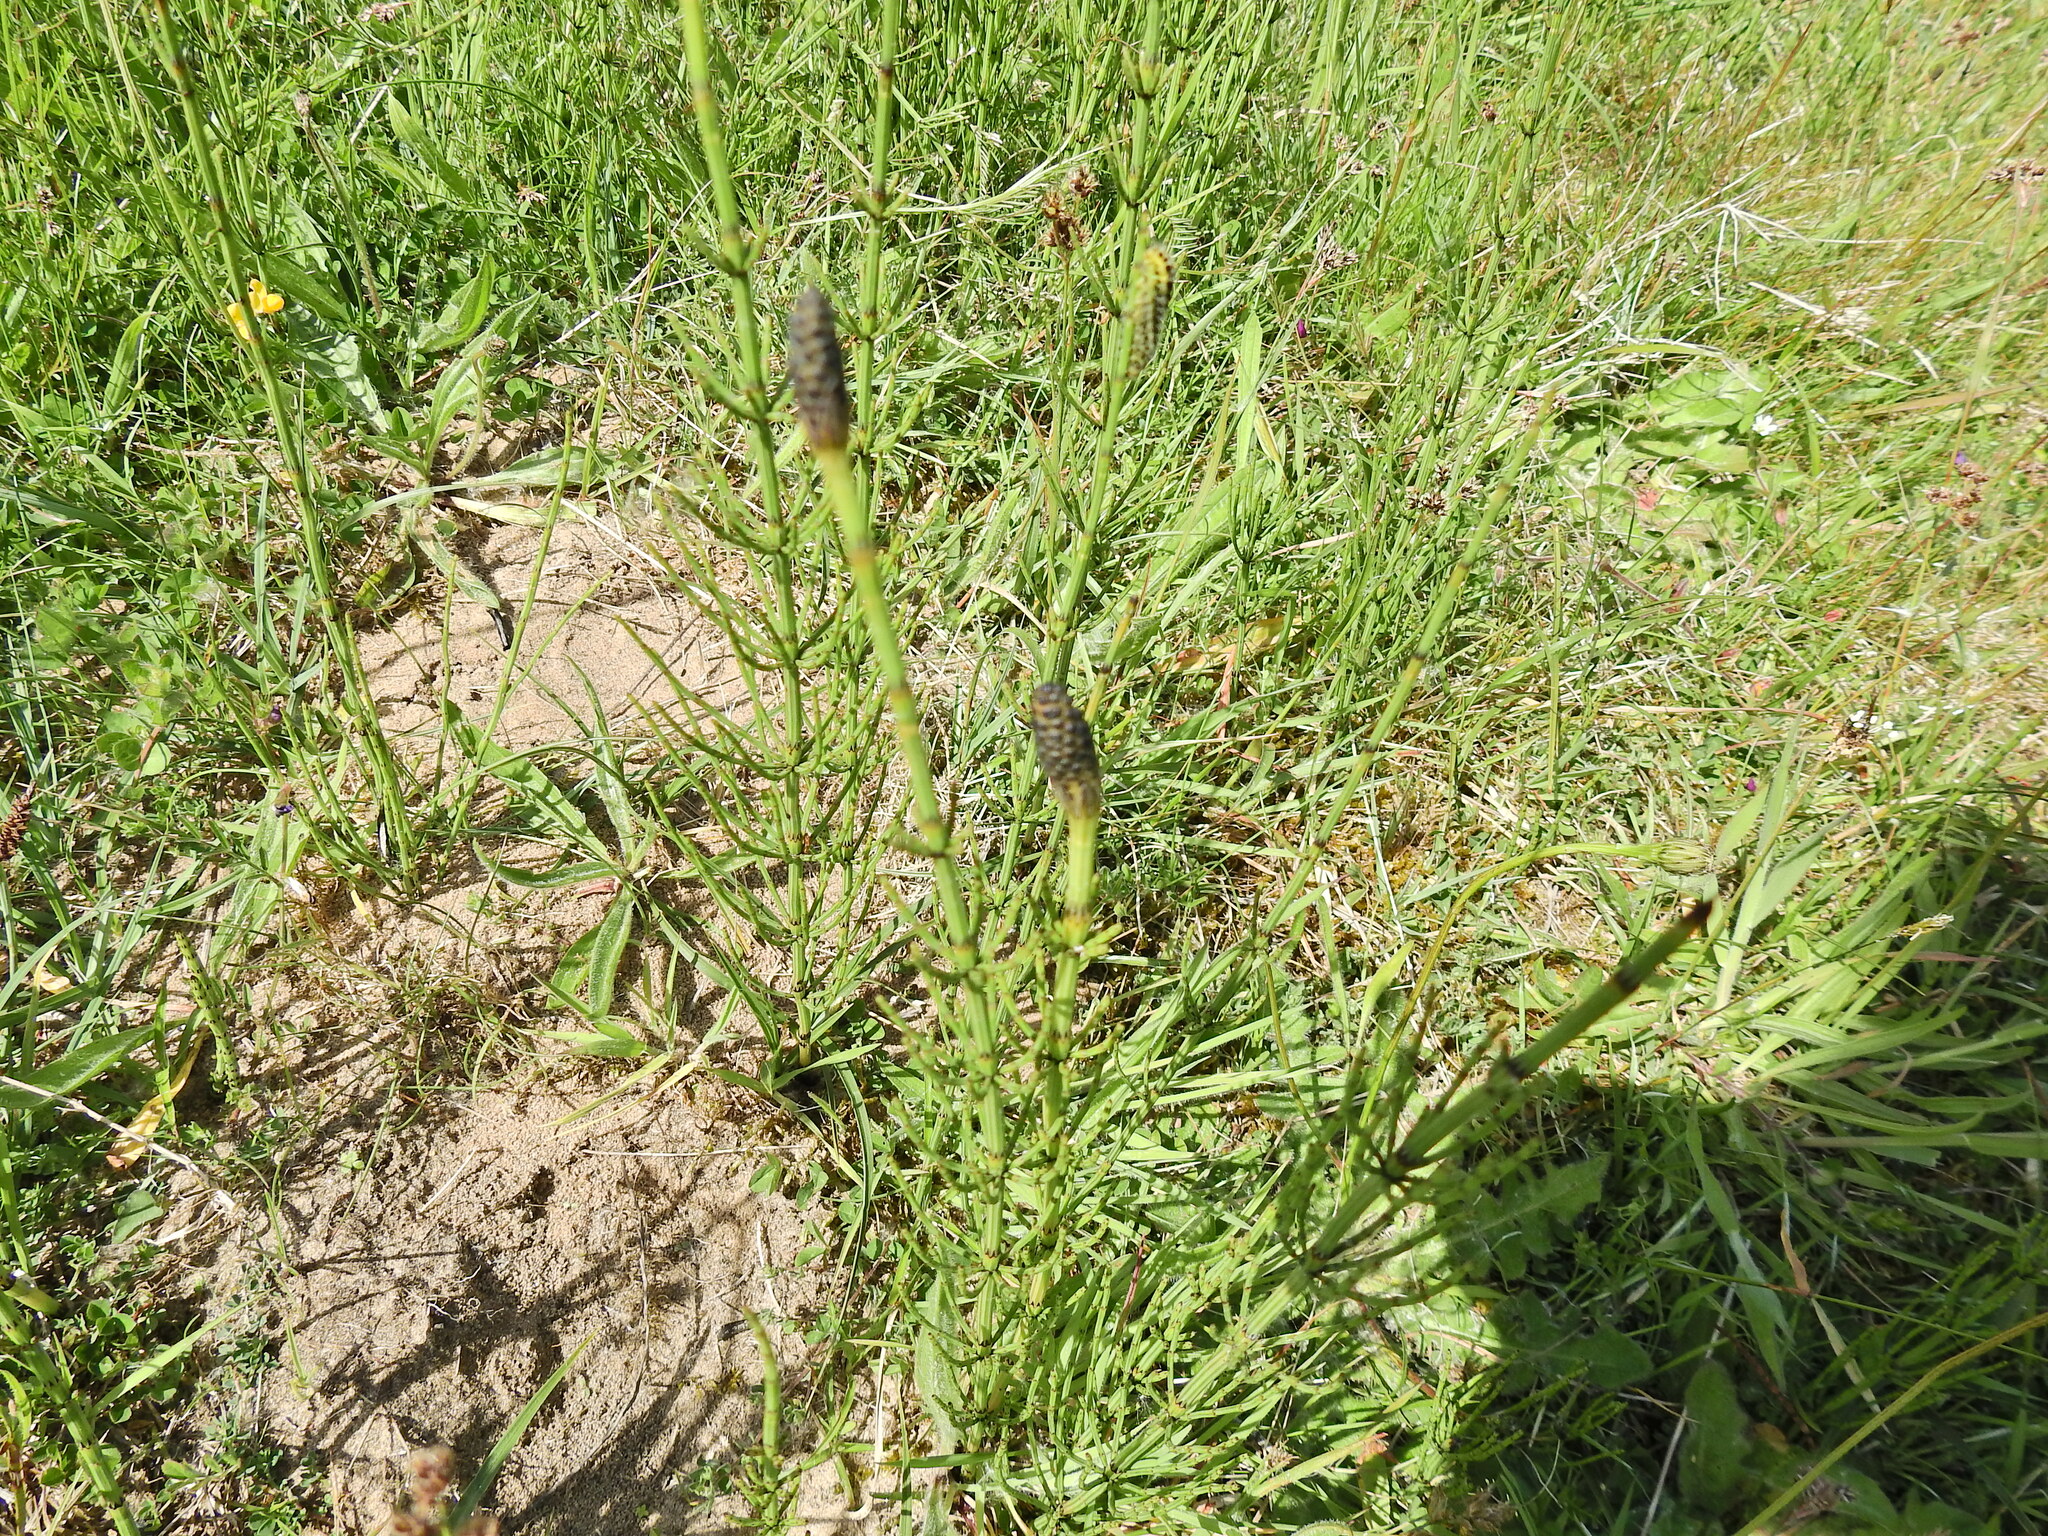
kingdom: Plantae
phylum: Tracheophyta
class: Polypodiopsida
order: Equisetales
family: Equisetaceae
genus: Equisetum
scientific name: Equisetum palustre
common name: Marsh horsetail
